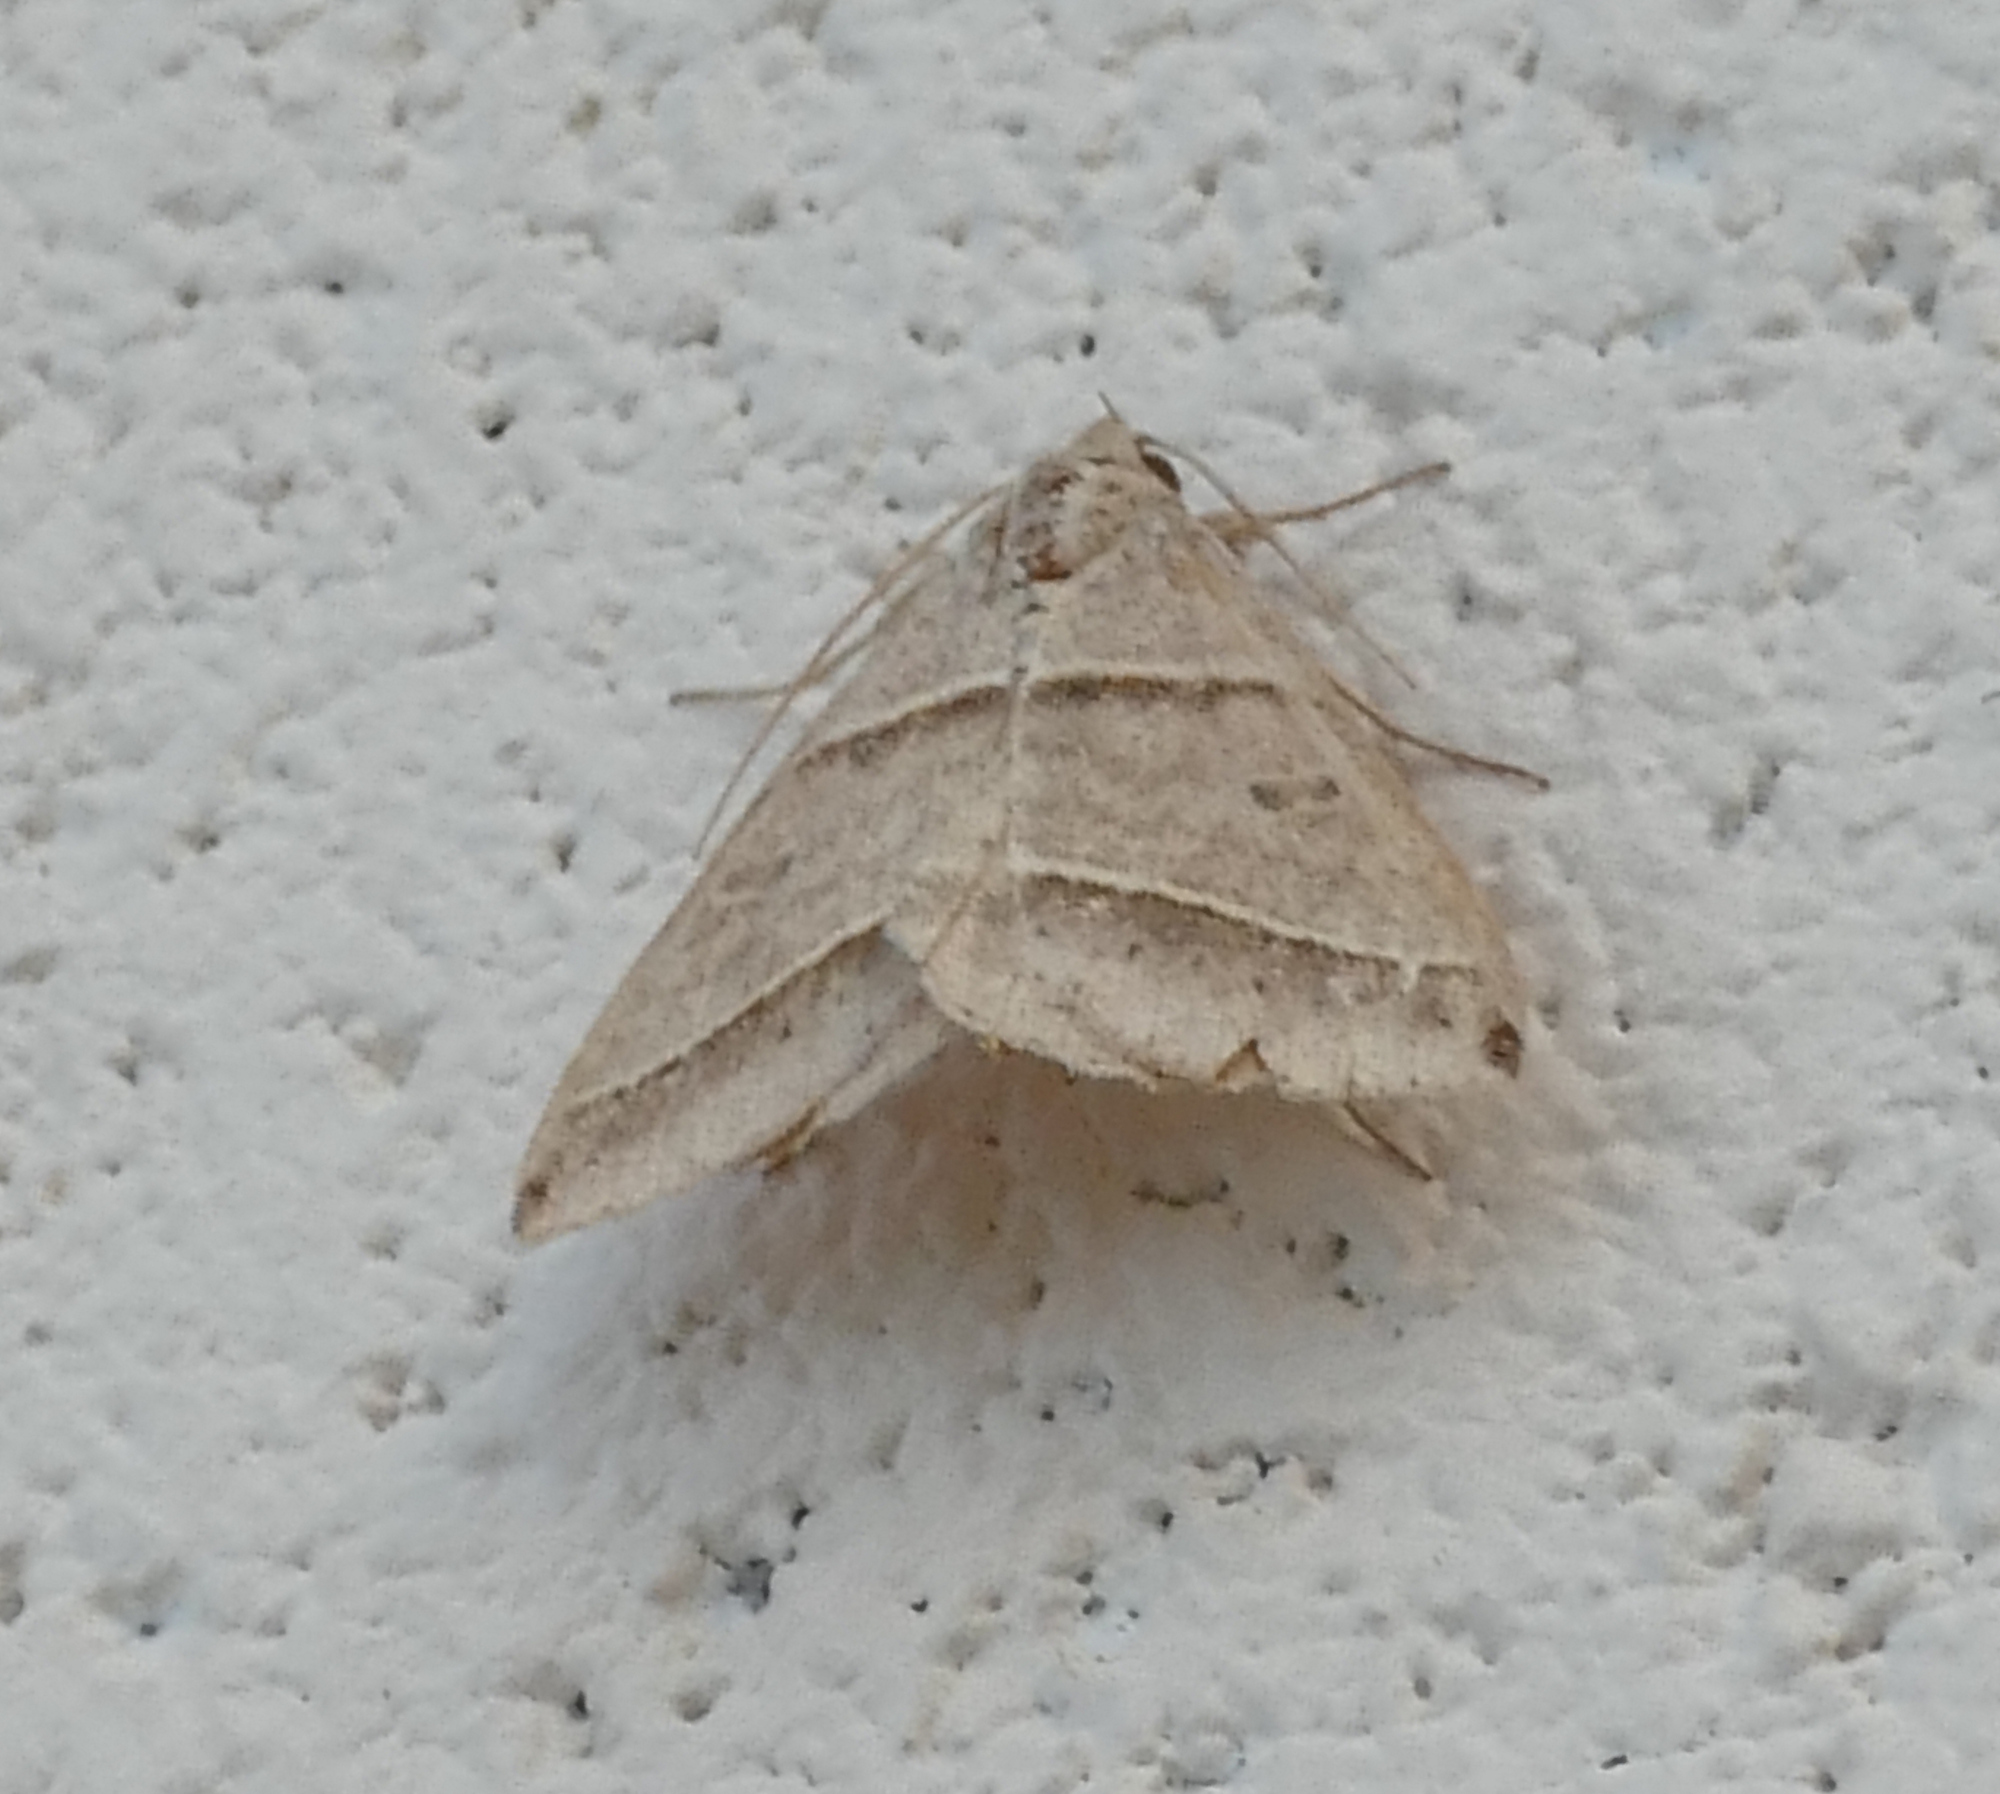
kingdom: Animalia
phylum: Arthropoda
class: Insecta
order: Lepidoptera
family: Erebidae
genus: Ptichodis
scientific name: Ptichodis vinculum
